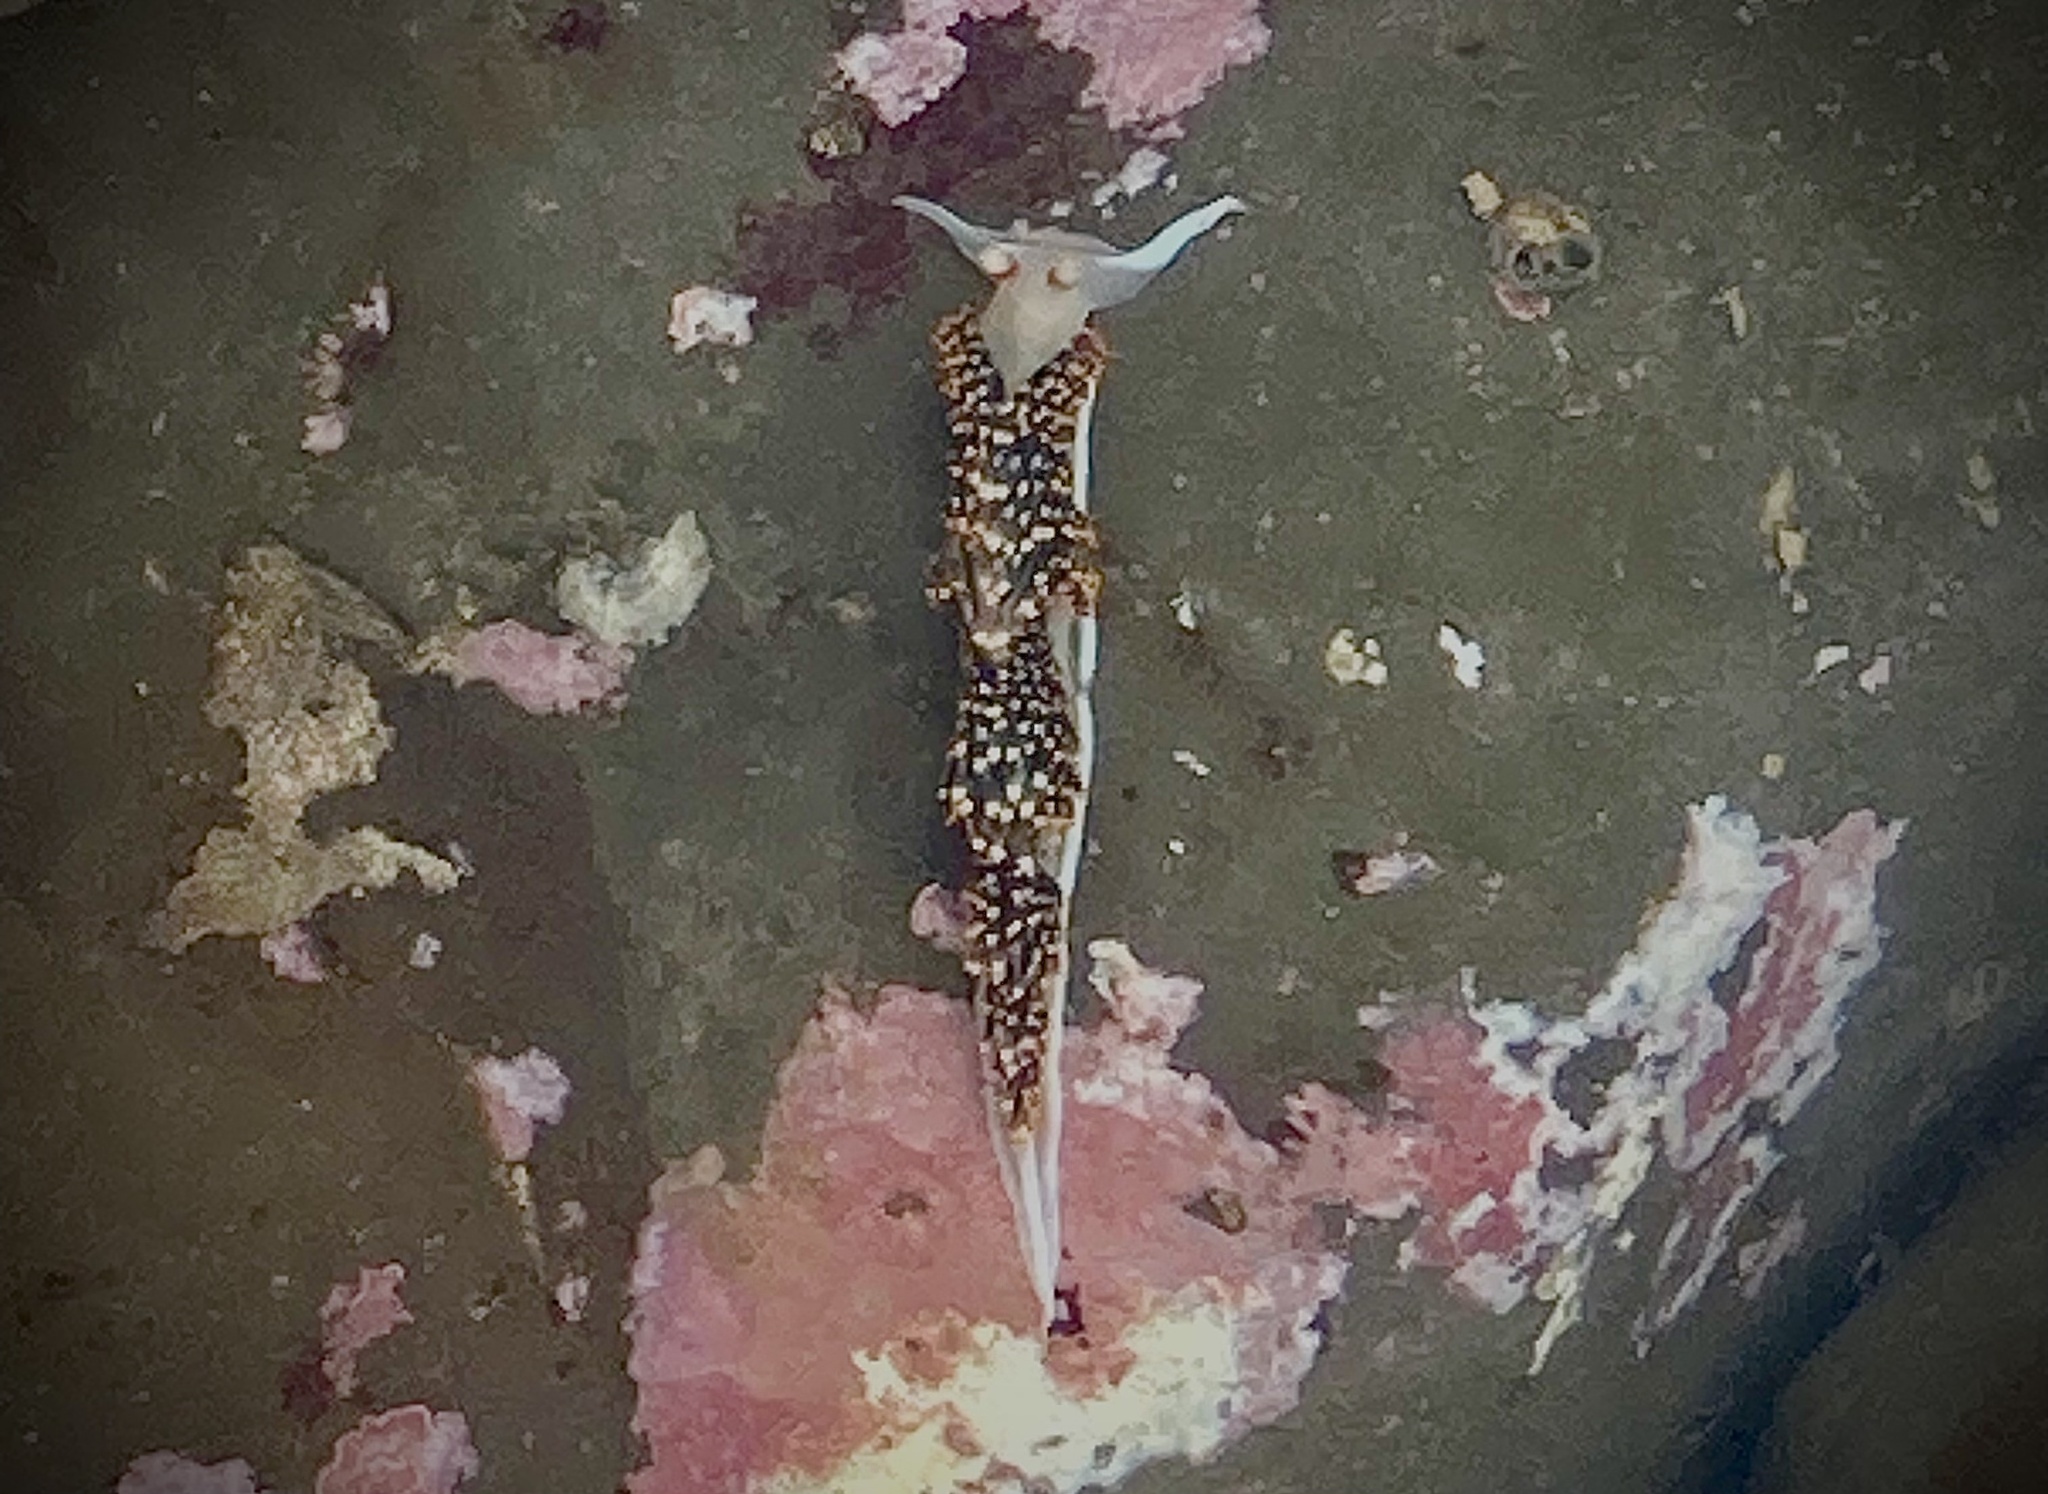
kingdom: Animalia
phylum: Mollusca
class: Gastropoda
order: Nudibranchia
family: Facelinidae
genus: Phidiana
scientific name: Phidiana hiltoni
